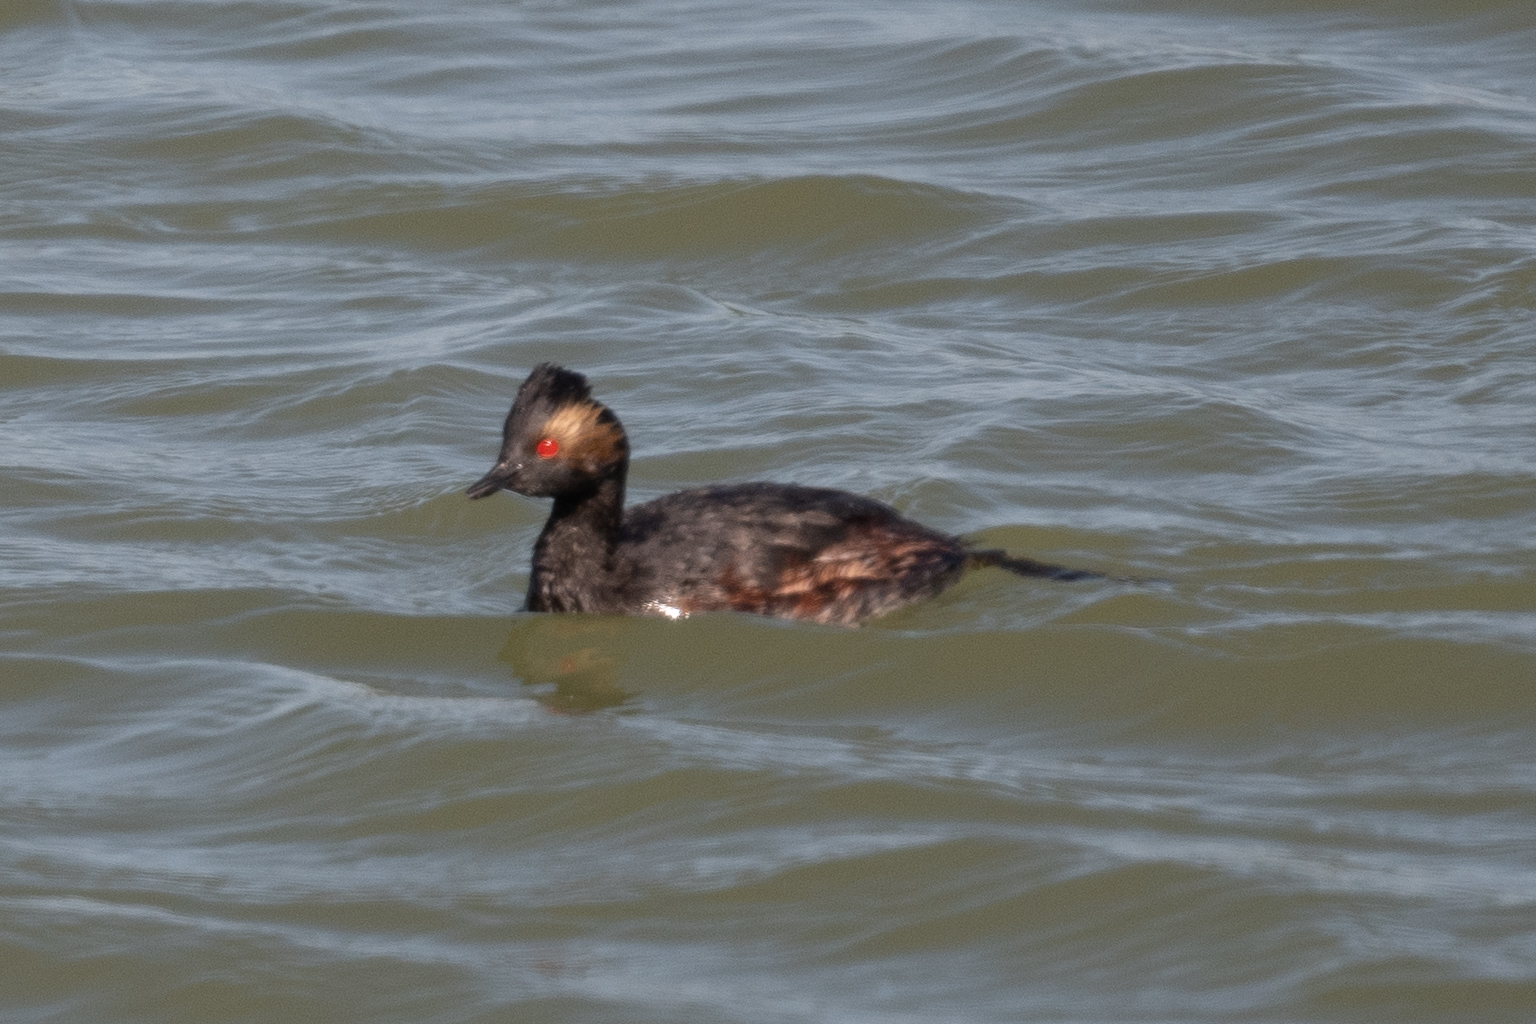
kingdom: Animalia
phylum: Chordata
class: Aves
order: Podicipediformes
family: Podicipedidae
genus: Podiceps
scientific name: Podiceps nigricollis
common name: Black-necked grebe
